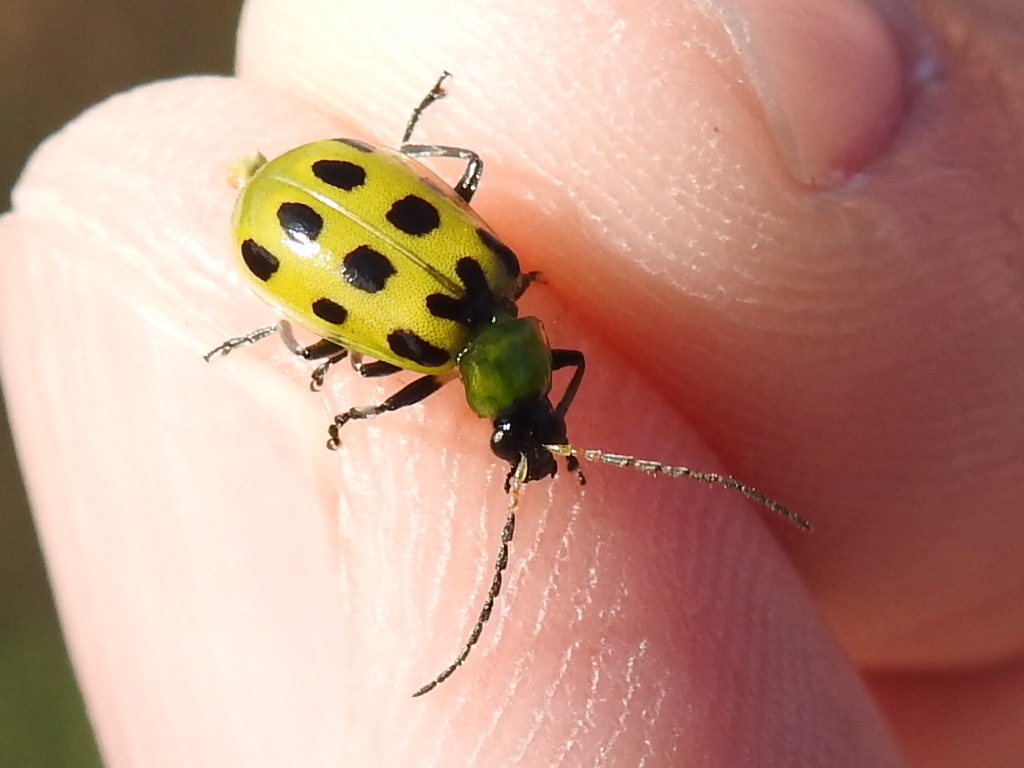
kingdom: Animalia
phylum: Arthropoda
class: Insecta
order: Coleoptera
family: Chrysomelidae
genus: Diabrotica
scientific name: Diabrotica undecimpunctata
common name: Spotted cucumber beetle
